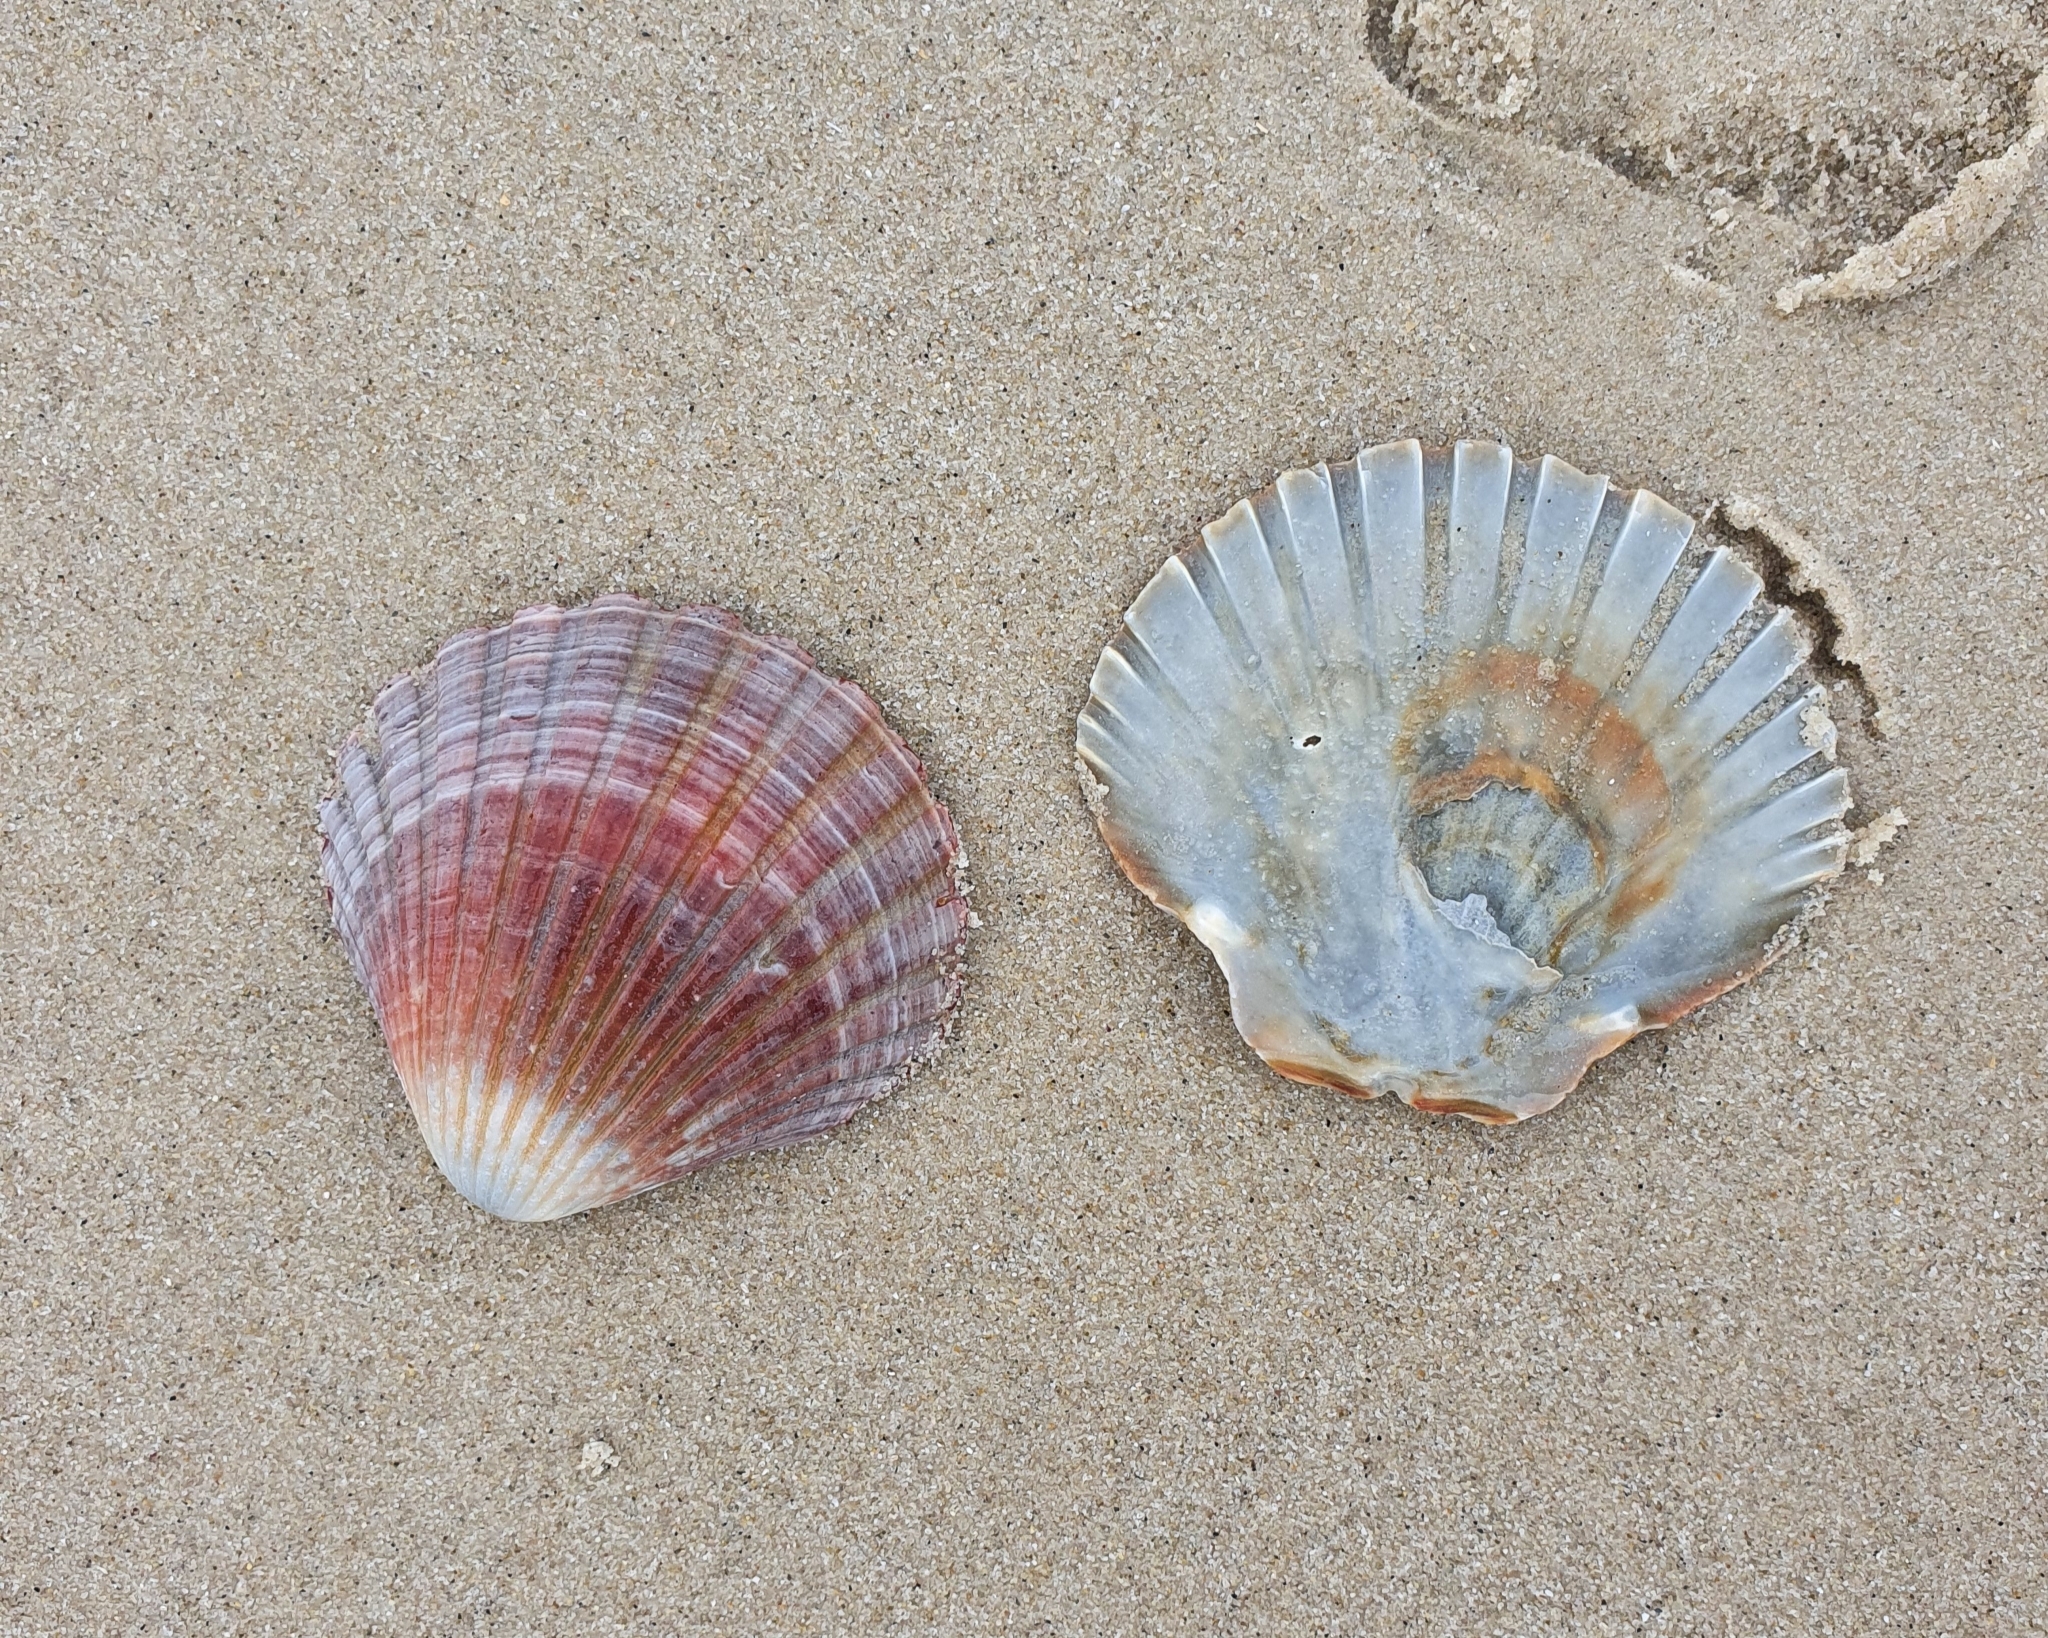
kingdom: Animalia
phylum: Mollusca
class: Bivalvia
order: Pectinida
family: Pectinidae
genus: Pecten
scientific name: Pecten fumatus
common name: Australian scallop
